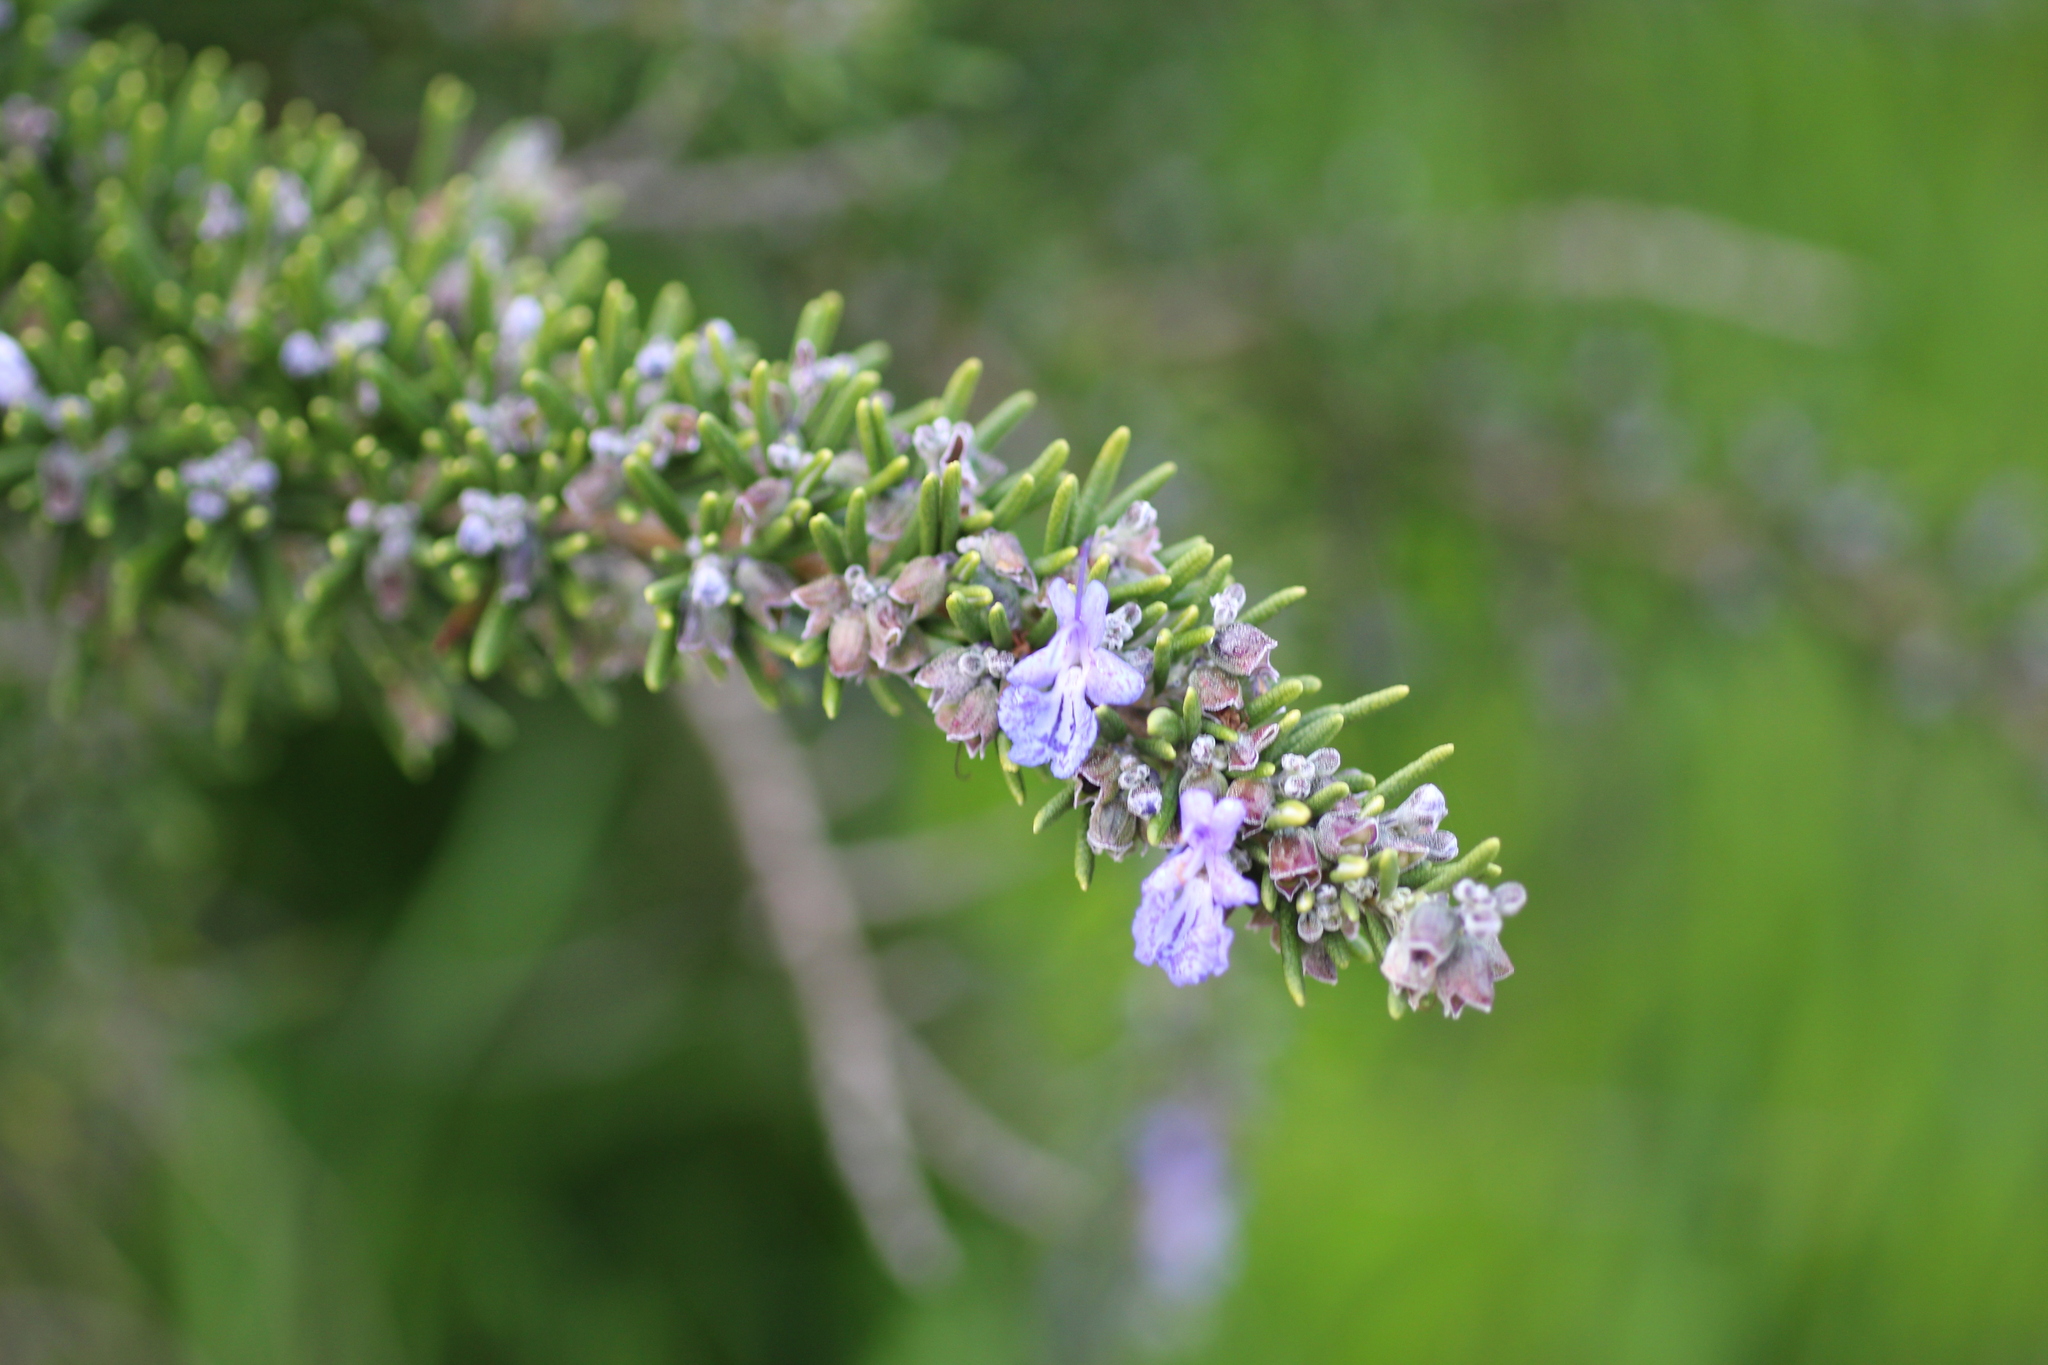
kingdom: Plantae
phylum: Tracheophyta
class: Magnoliopsida
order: Lamiales
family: Lamiaceae
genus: Salvia
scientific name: Salvia rosmarinus
